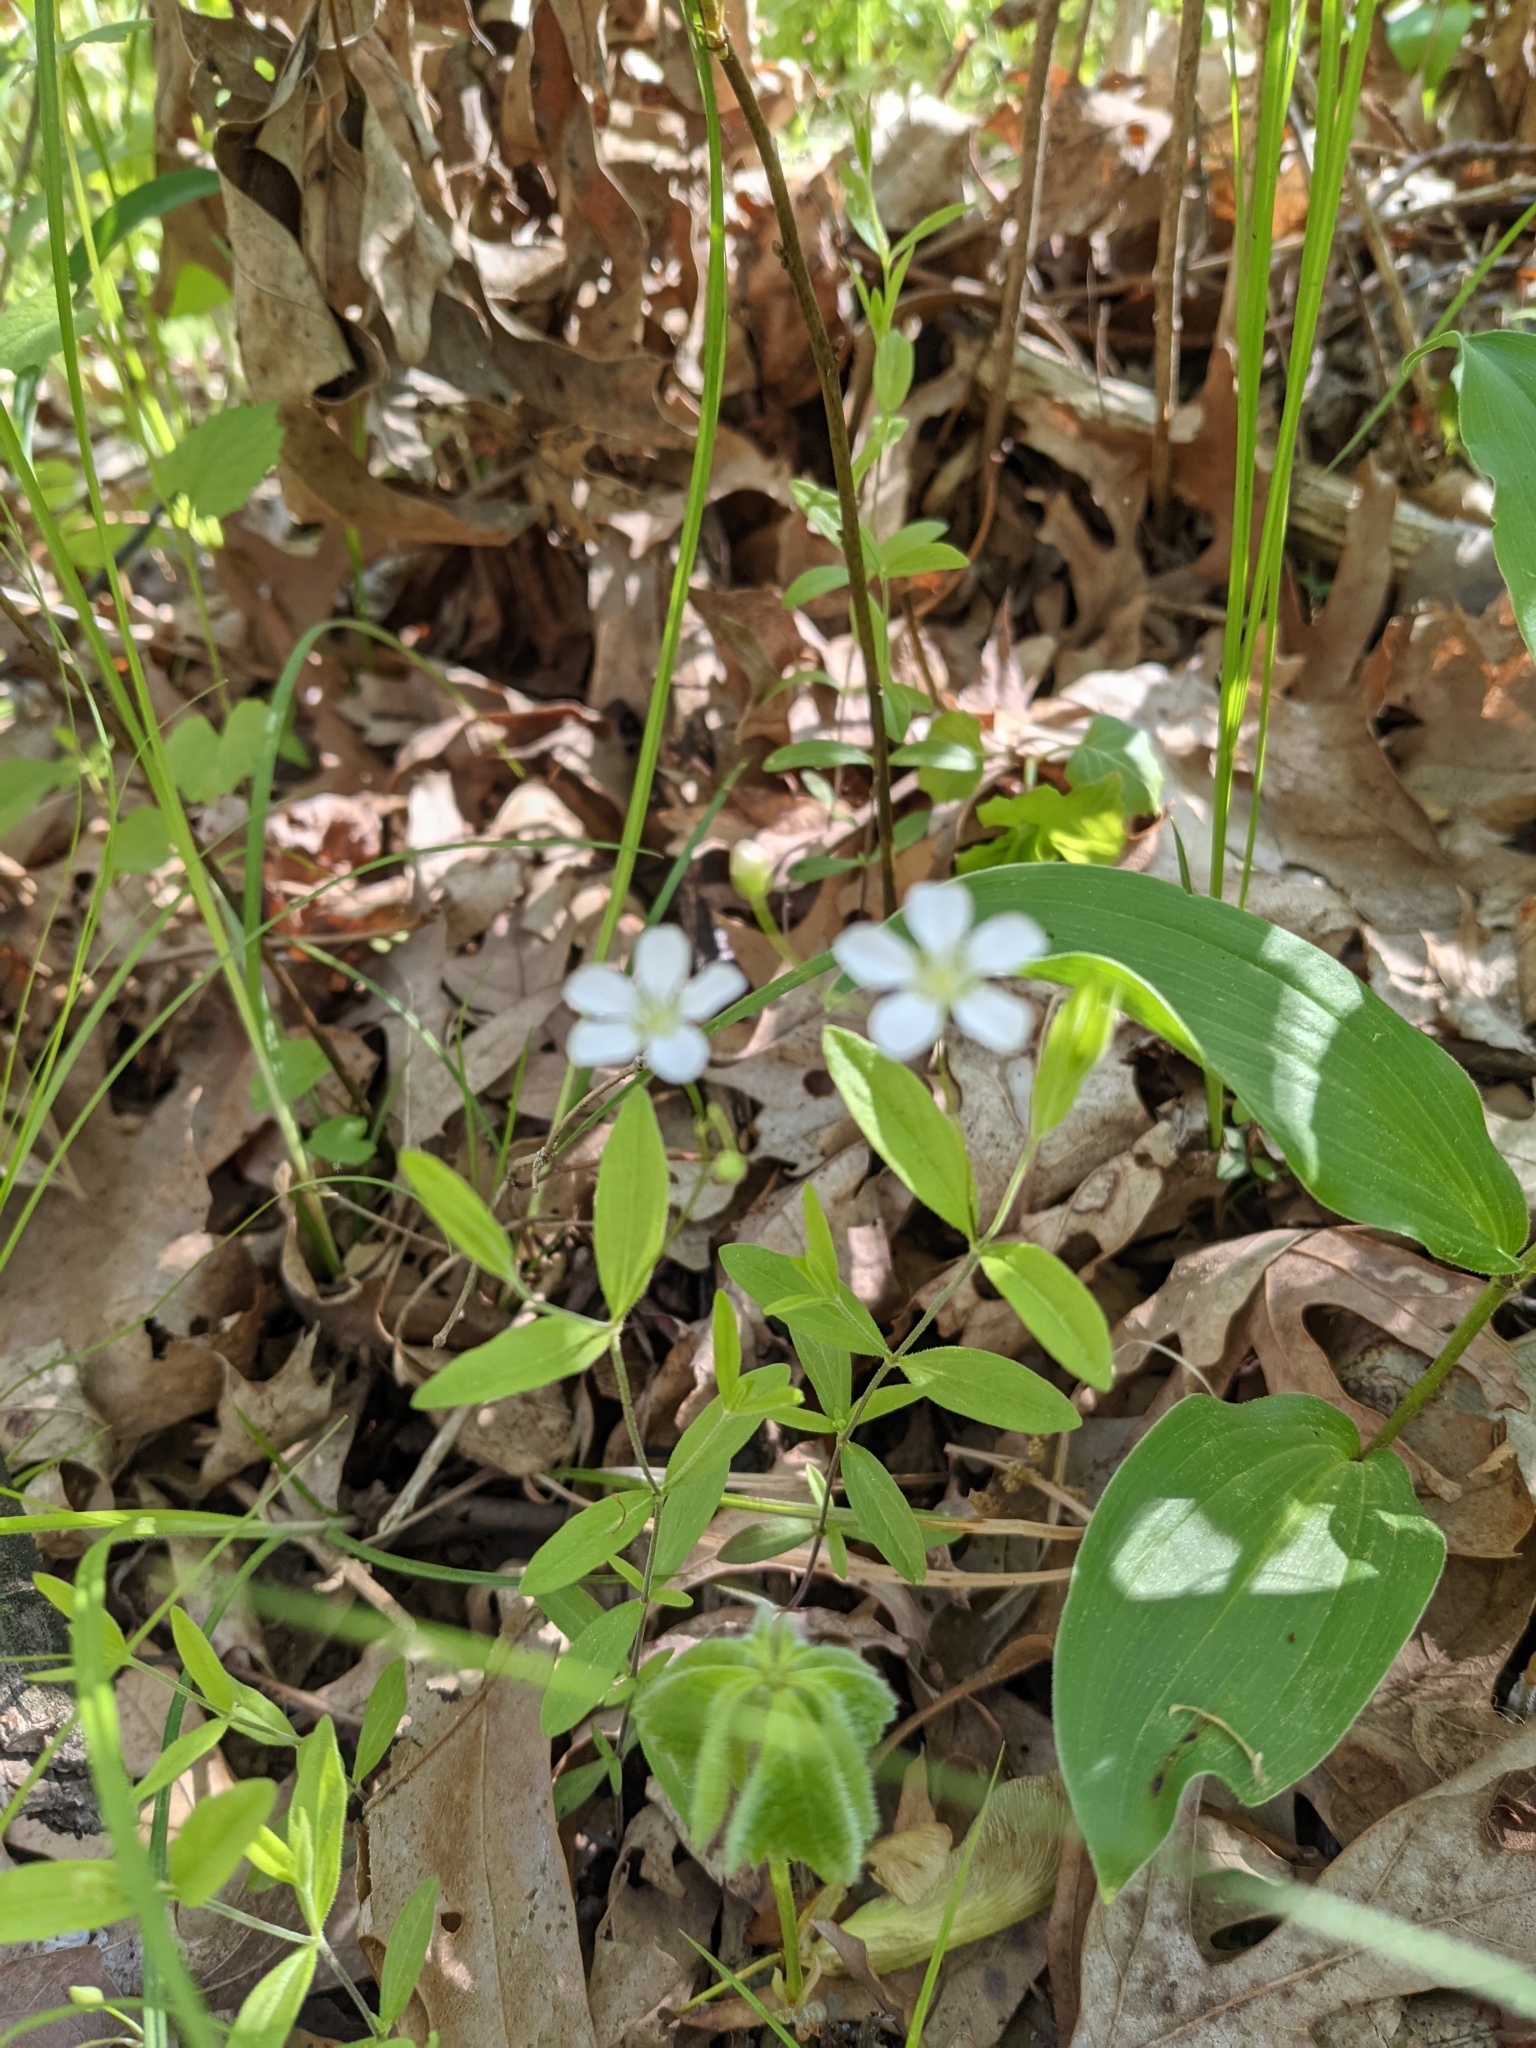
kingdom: Plantae
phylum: Tracheophyta
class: Magnoliopsida
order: Caryophyllales
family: Caryophyllaceae
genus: Moehringia
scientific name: Moehringia lateriflora
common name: Blunt-leaved sandwort
